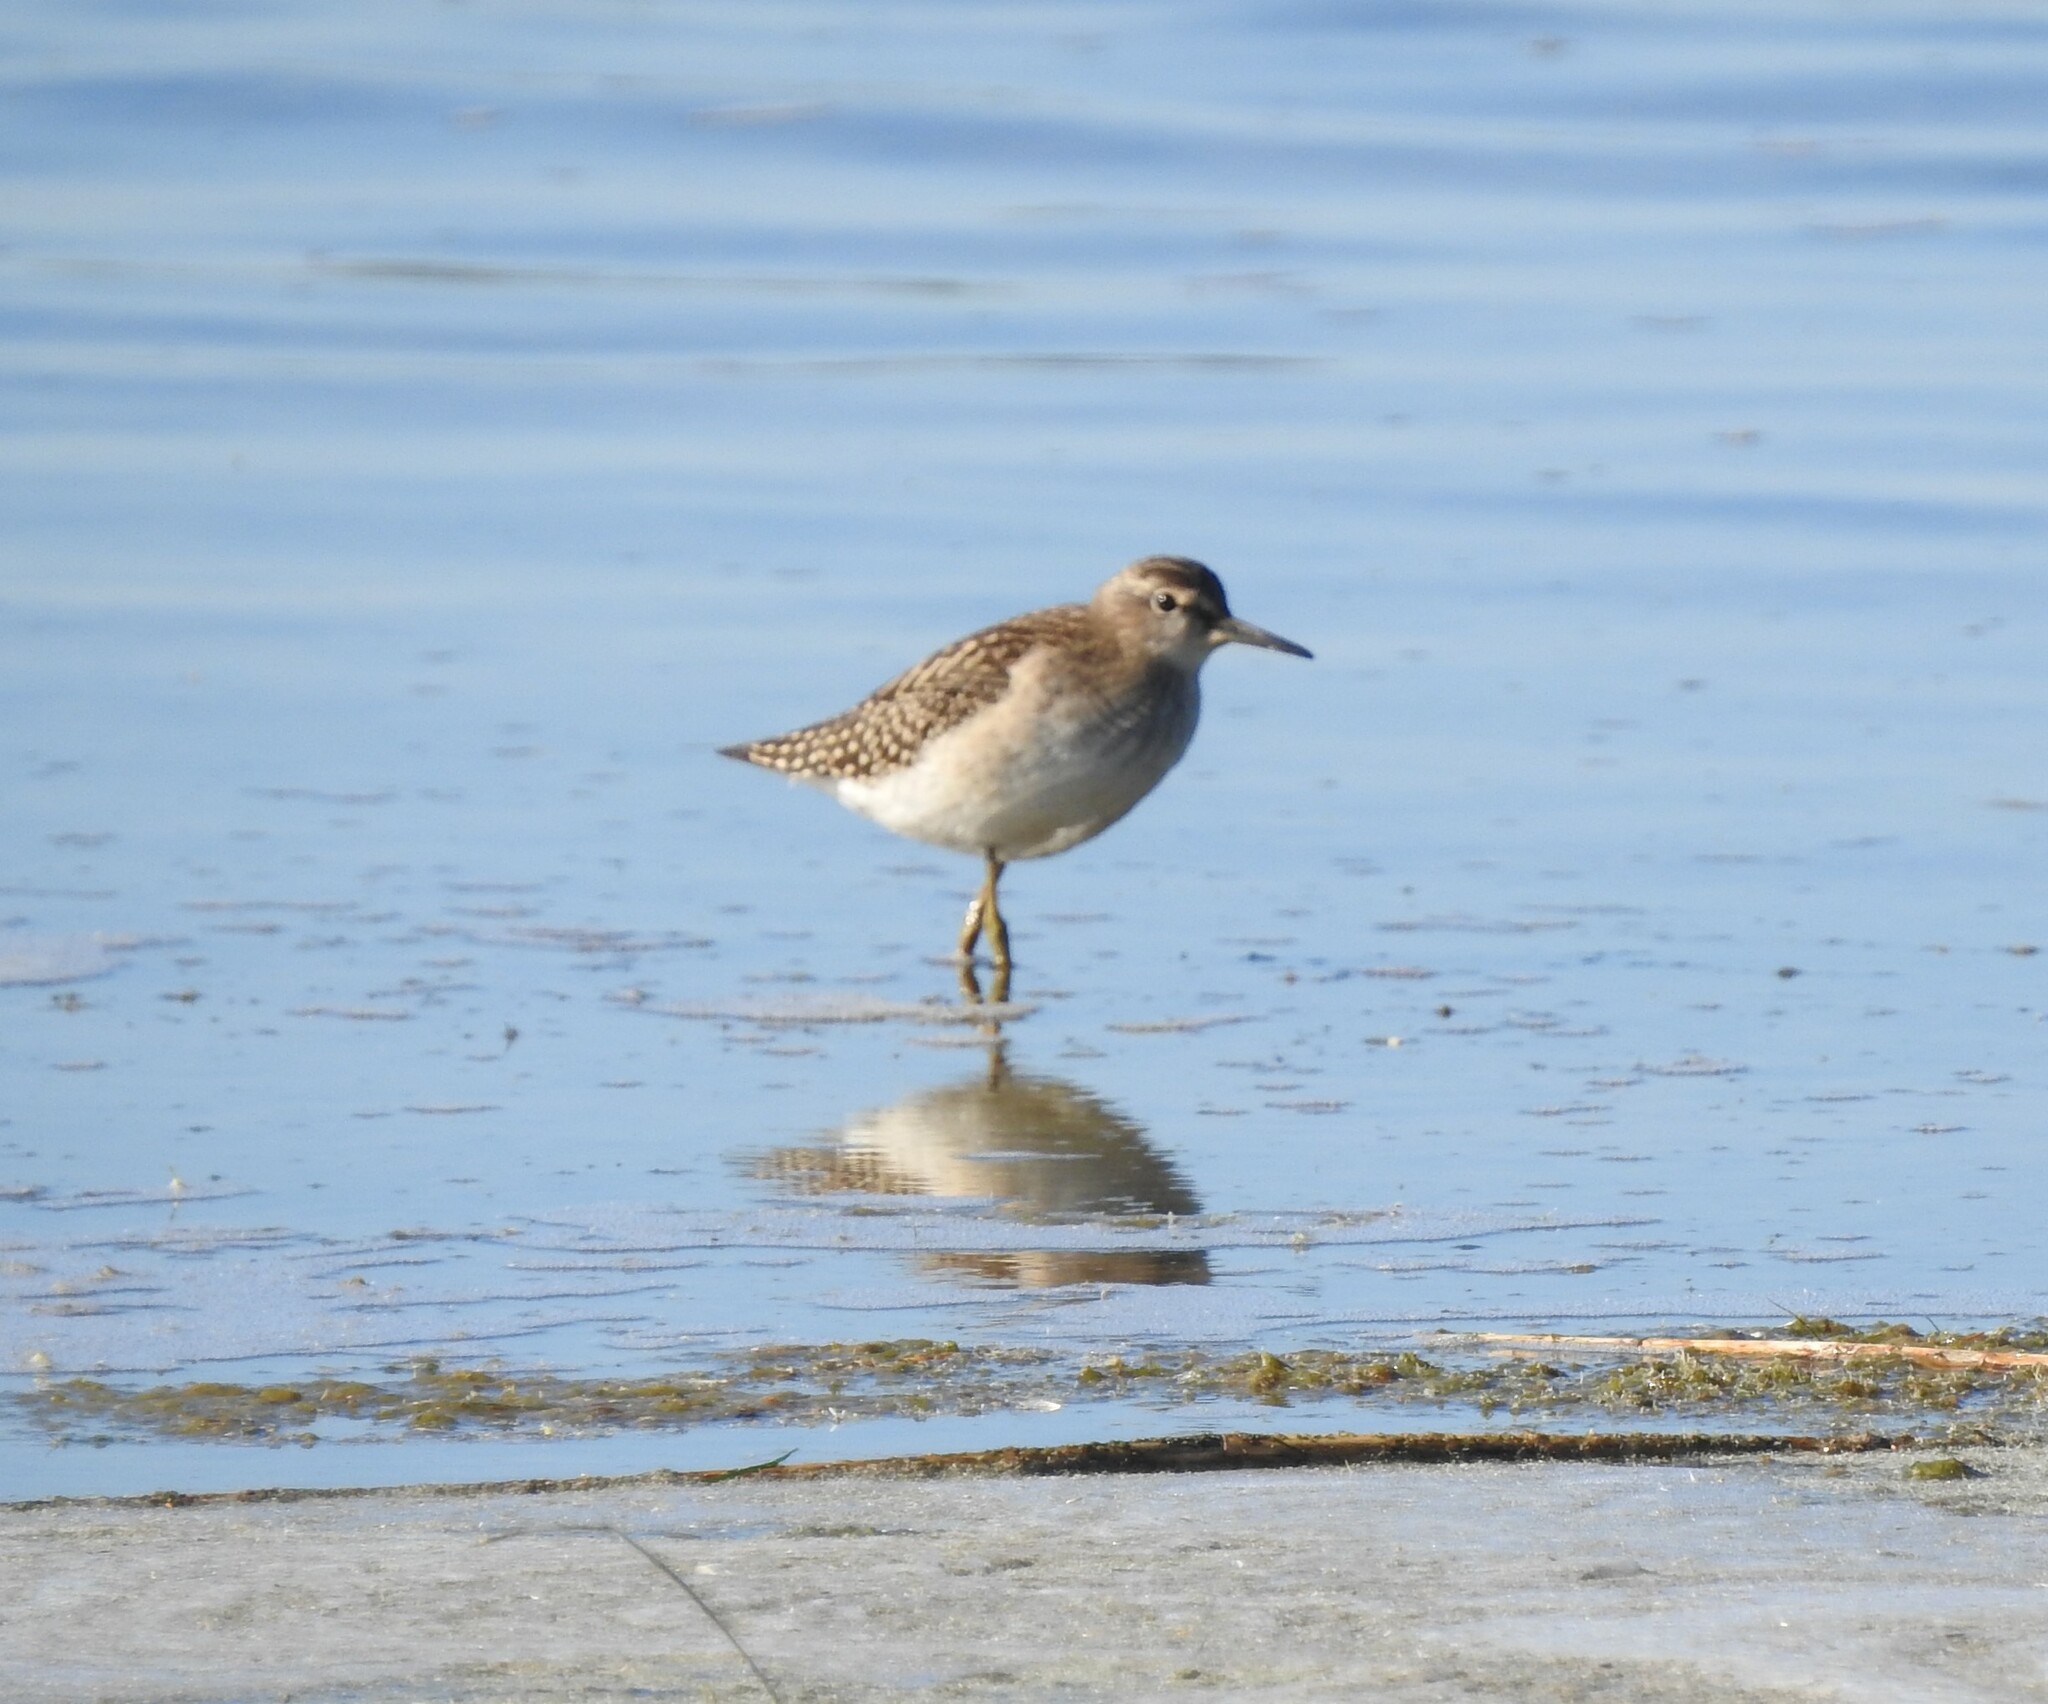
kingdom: Animalia
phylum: Chordata
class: Aves
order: Charadriiformes
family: Scolopacidae
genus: Tringa
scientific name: Tringa glareola
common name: Wood sandpiper
